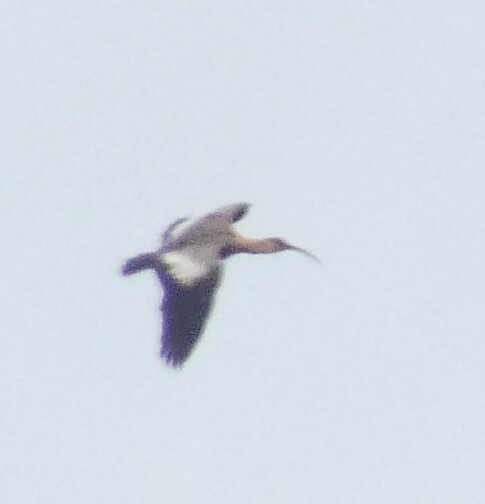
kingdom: Animalia
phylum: Chordata
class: Aves
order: Pelecaniformes
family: Threskiornithidae
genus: Theristicus
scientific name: Theristicus caudatus
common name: Buff-necked ibis
